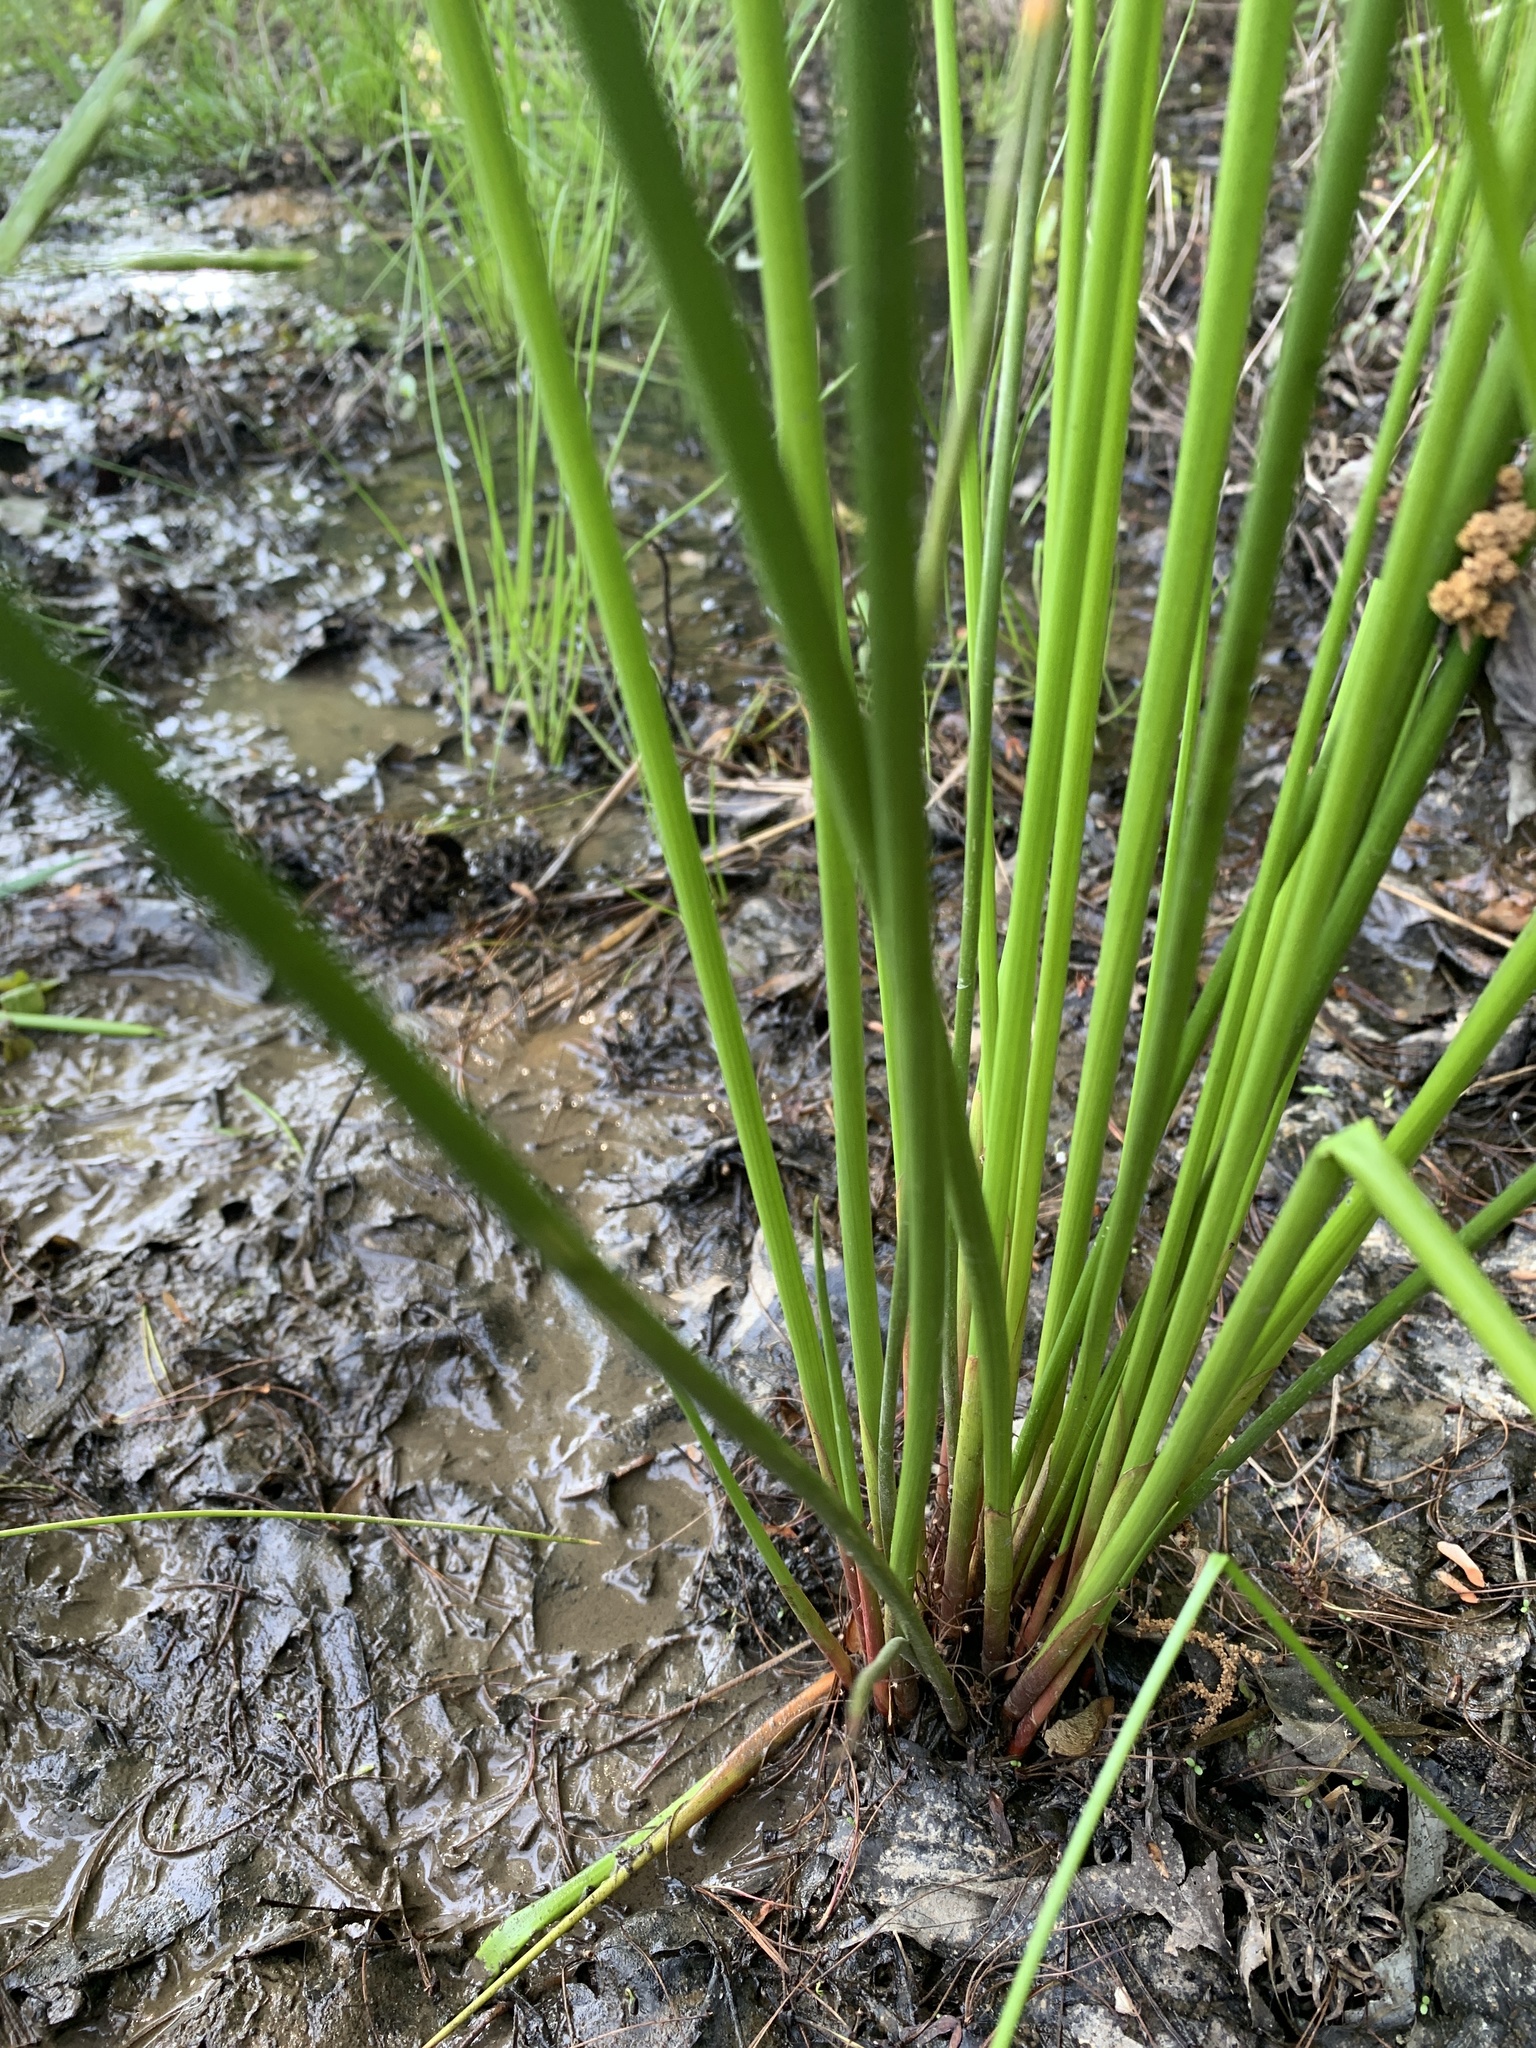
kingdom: Plantae
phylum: Tracheophyta
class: Liliopsida
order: Poales
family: Juncaceae
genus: Juncus
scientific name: Juncus effusus
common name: Soft rush
